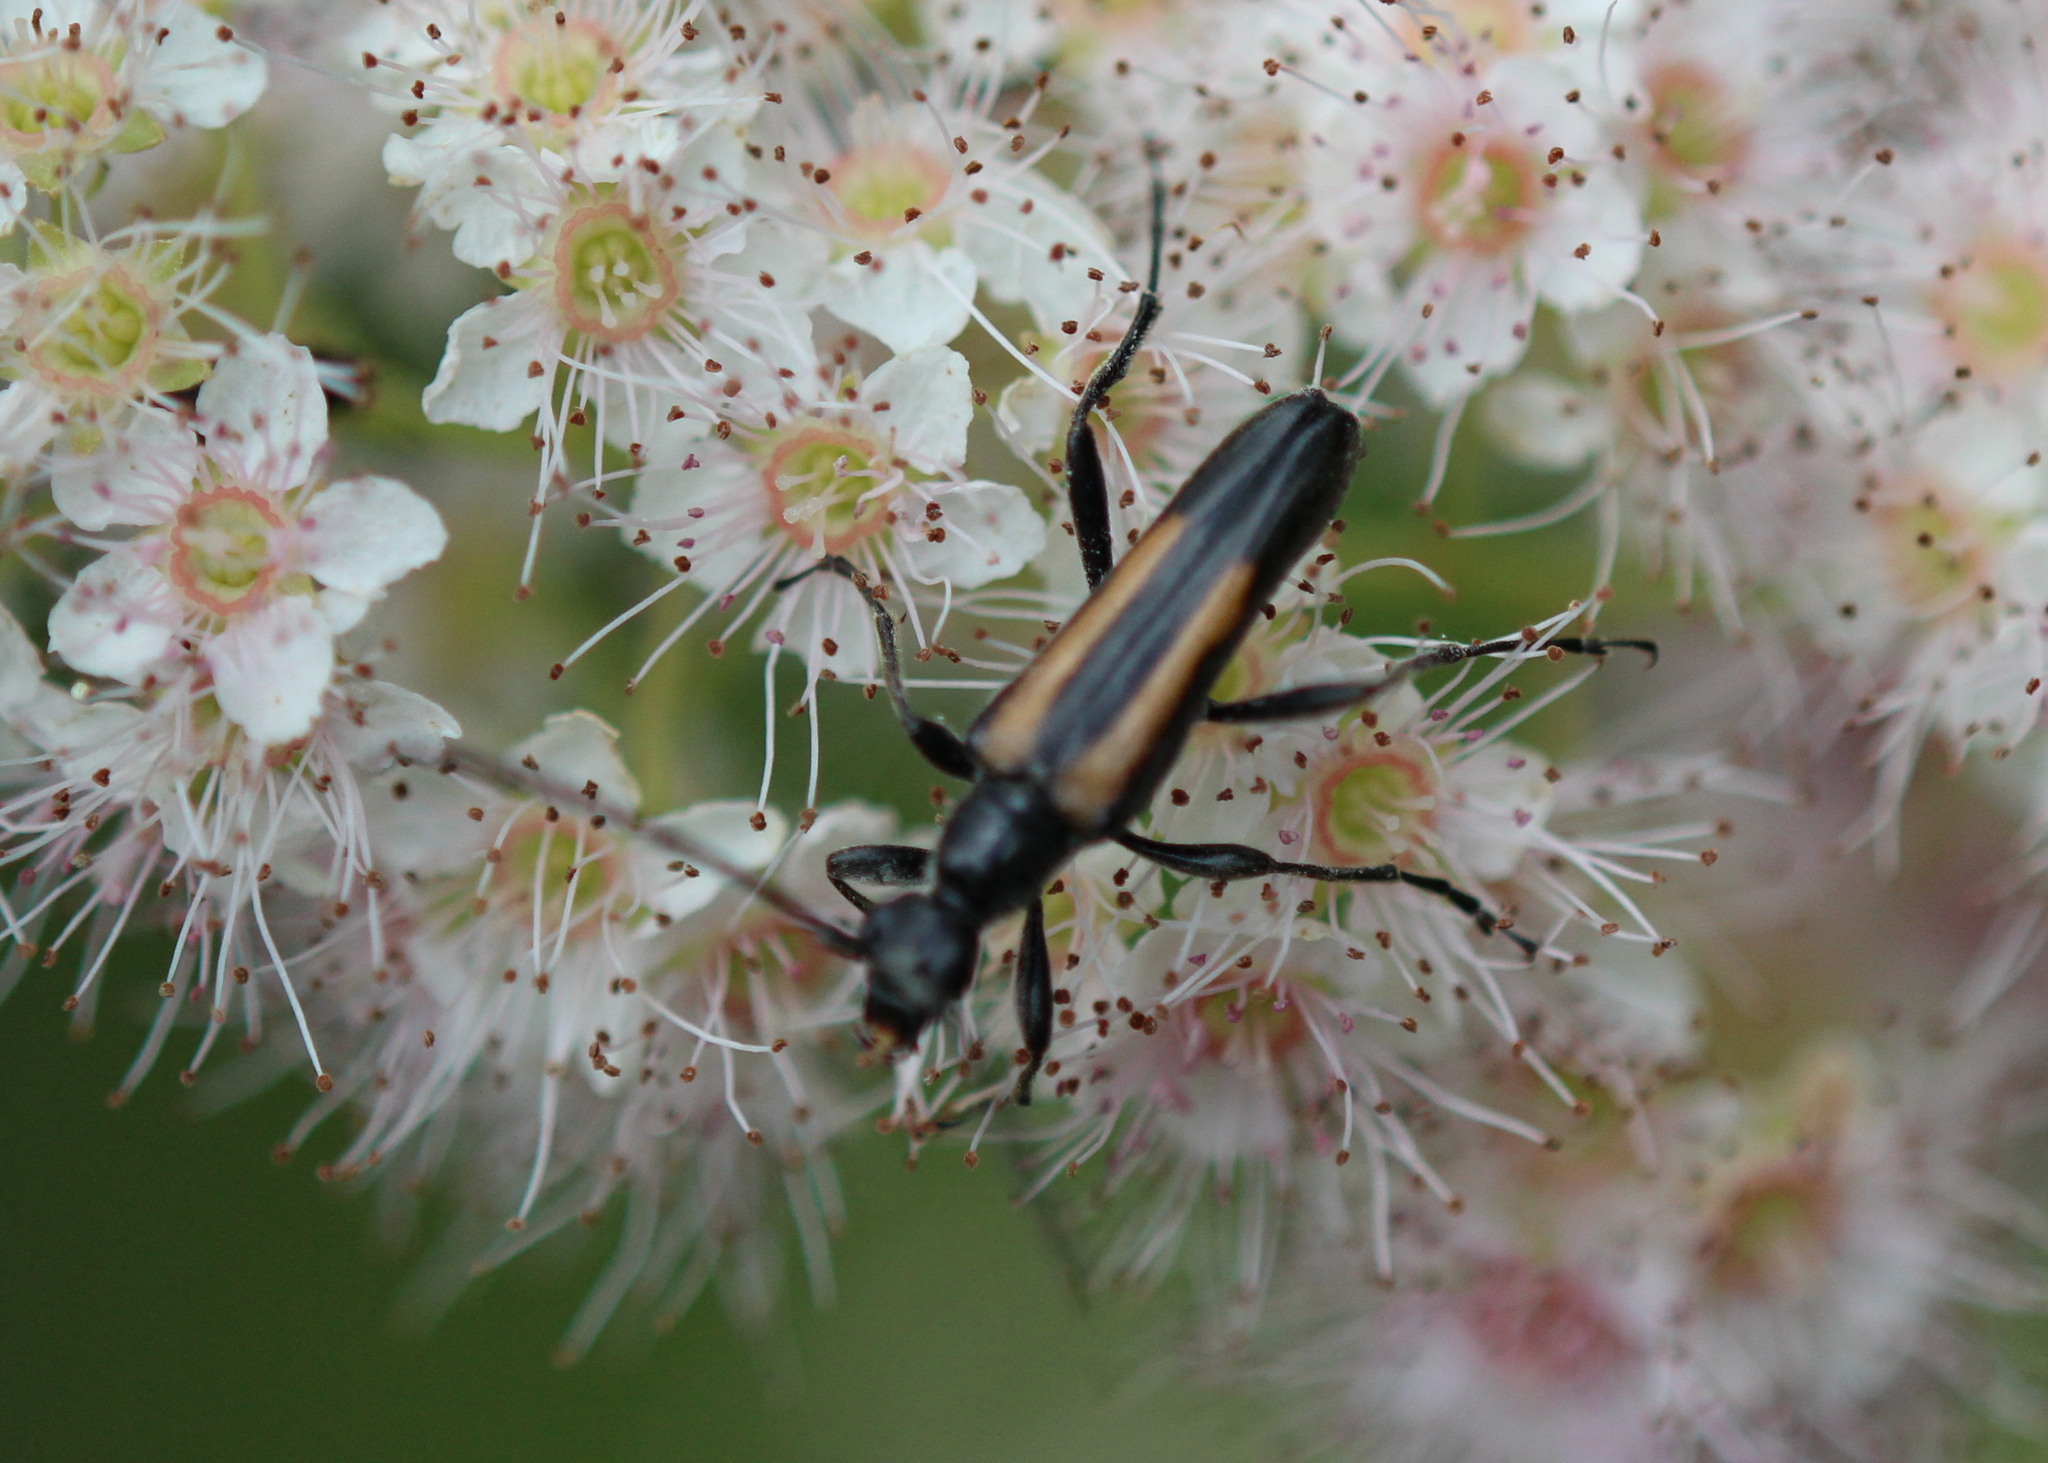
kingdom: Animalia
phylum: Arthropoda
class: Insecta
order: Coleoptera
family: Cerambycidae
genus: Strangalepta
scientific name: Strangalepta abbreviata
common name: Strangalepta flower longhorn beetle
